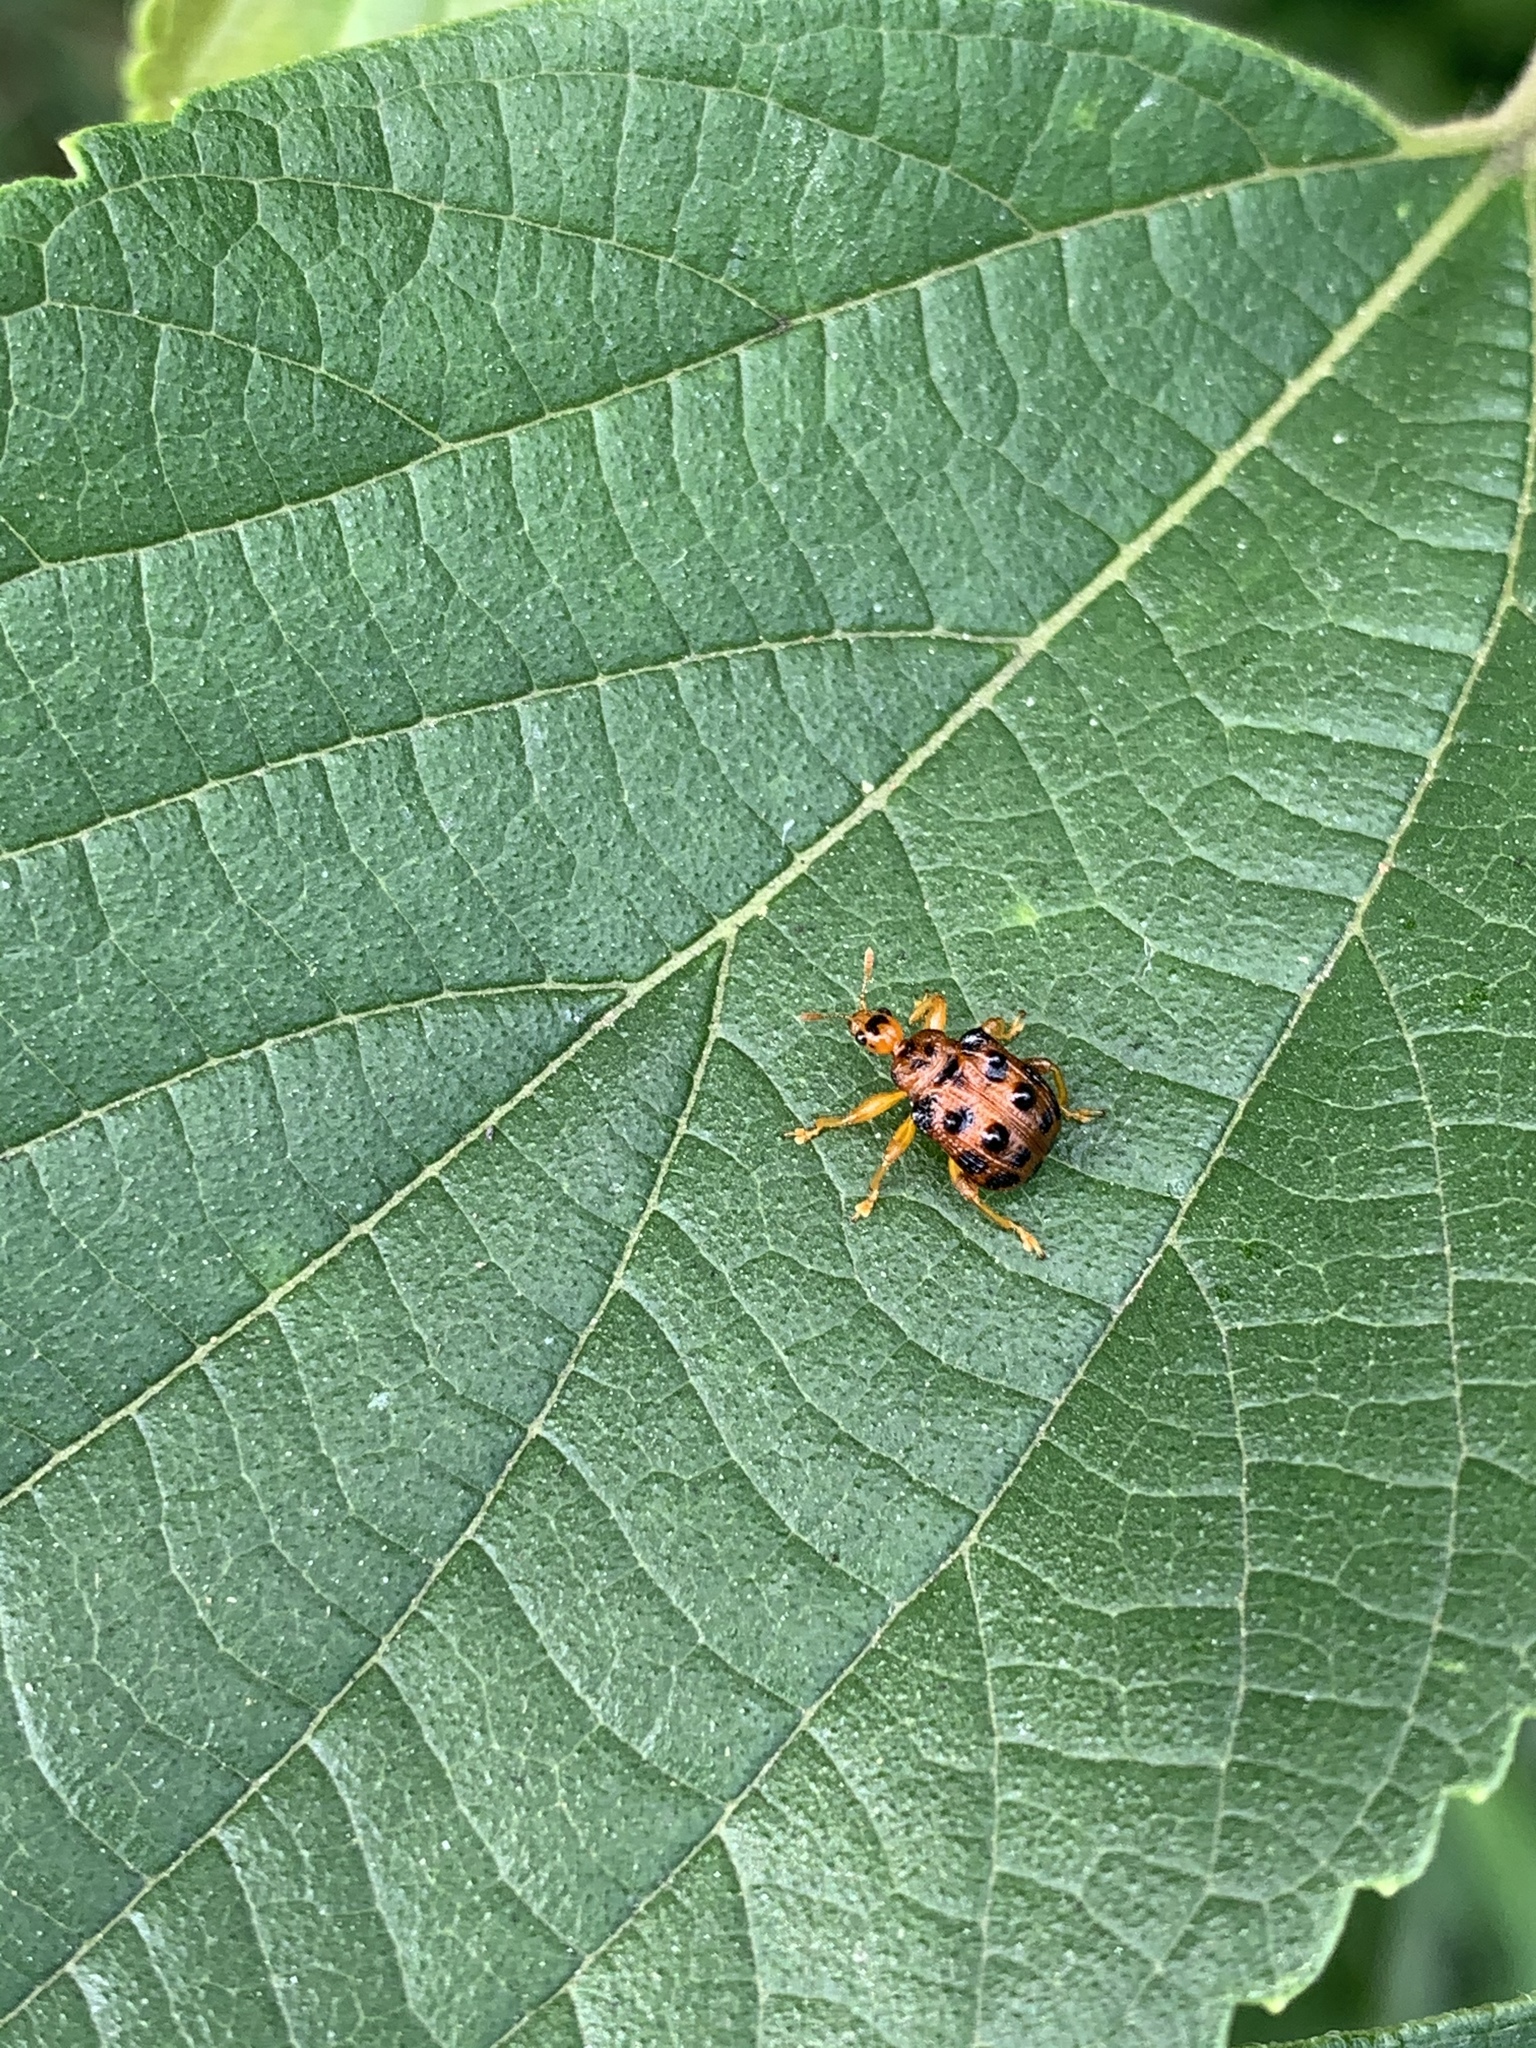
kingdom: Animalia
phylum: Arthropoda
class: Insecta
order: Coleoptera
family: Attelabidae
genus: Hoplapoderus
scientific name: Hoplapoderus pardaloides
